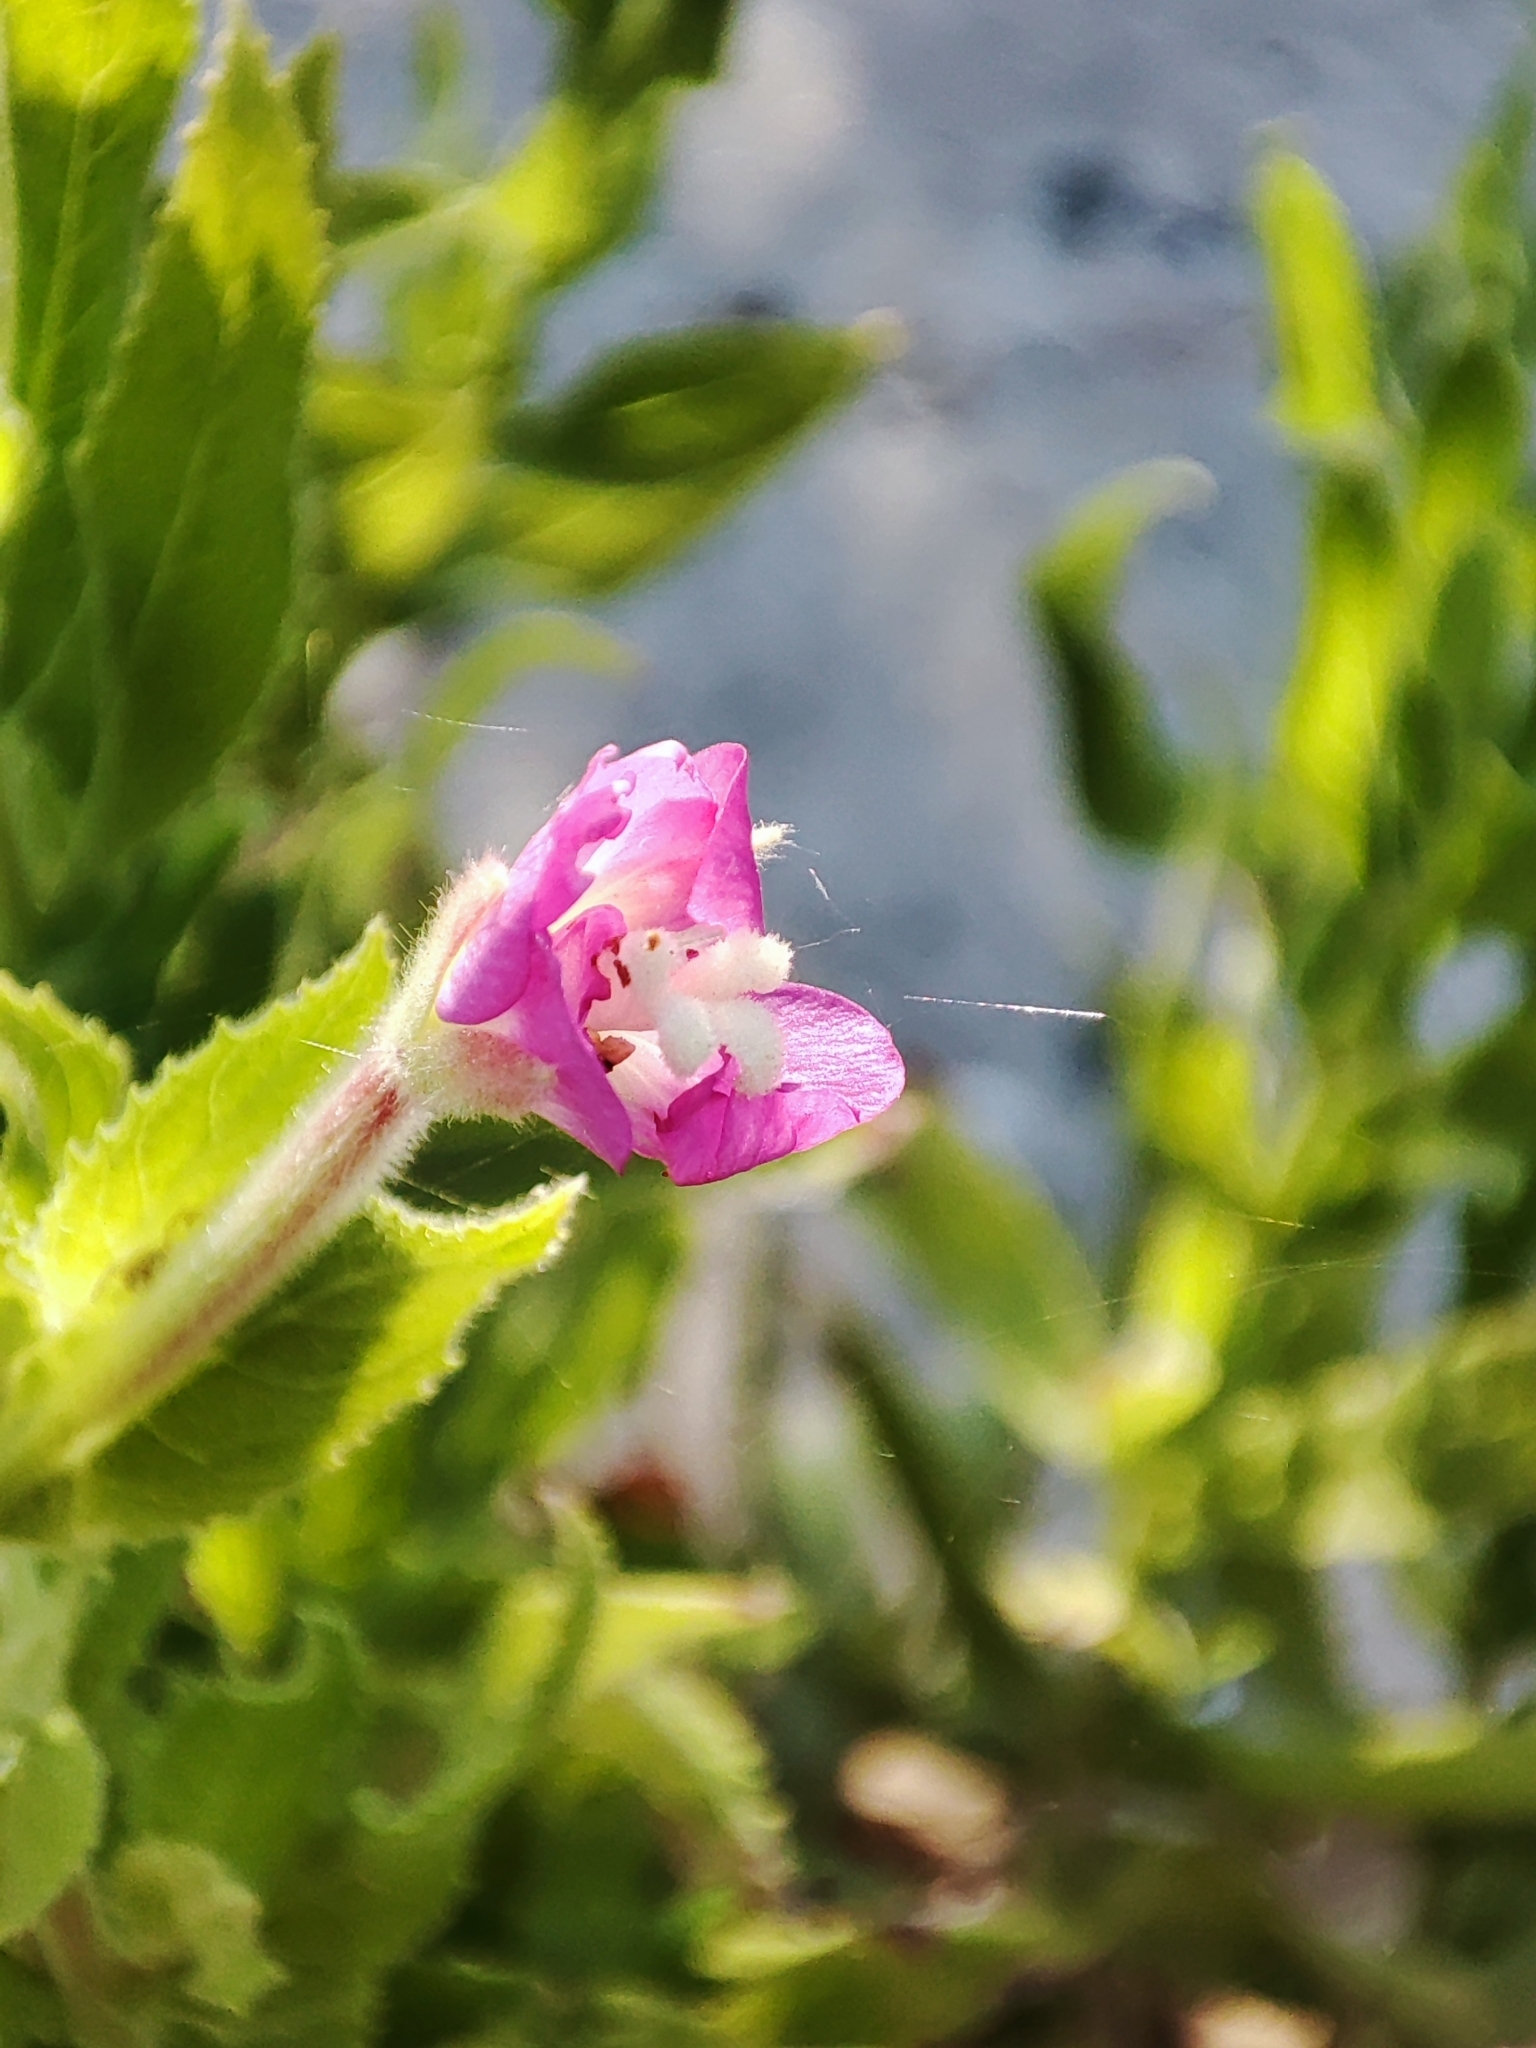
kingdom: Plantae
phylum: Tracheophyta
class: Magnoliopsida
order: Myrtales
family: Onagraceae
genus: Epilobium
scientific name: Epilobium hirsutum
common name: Great willowherb
